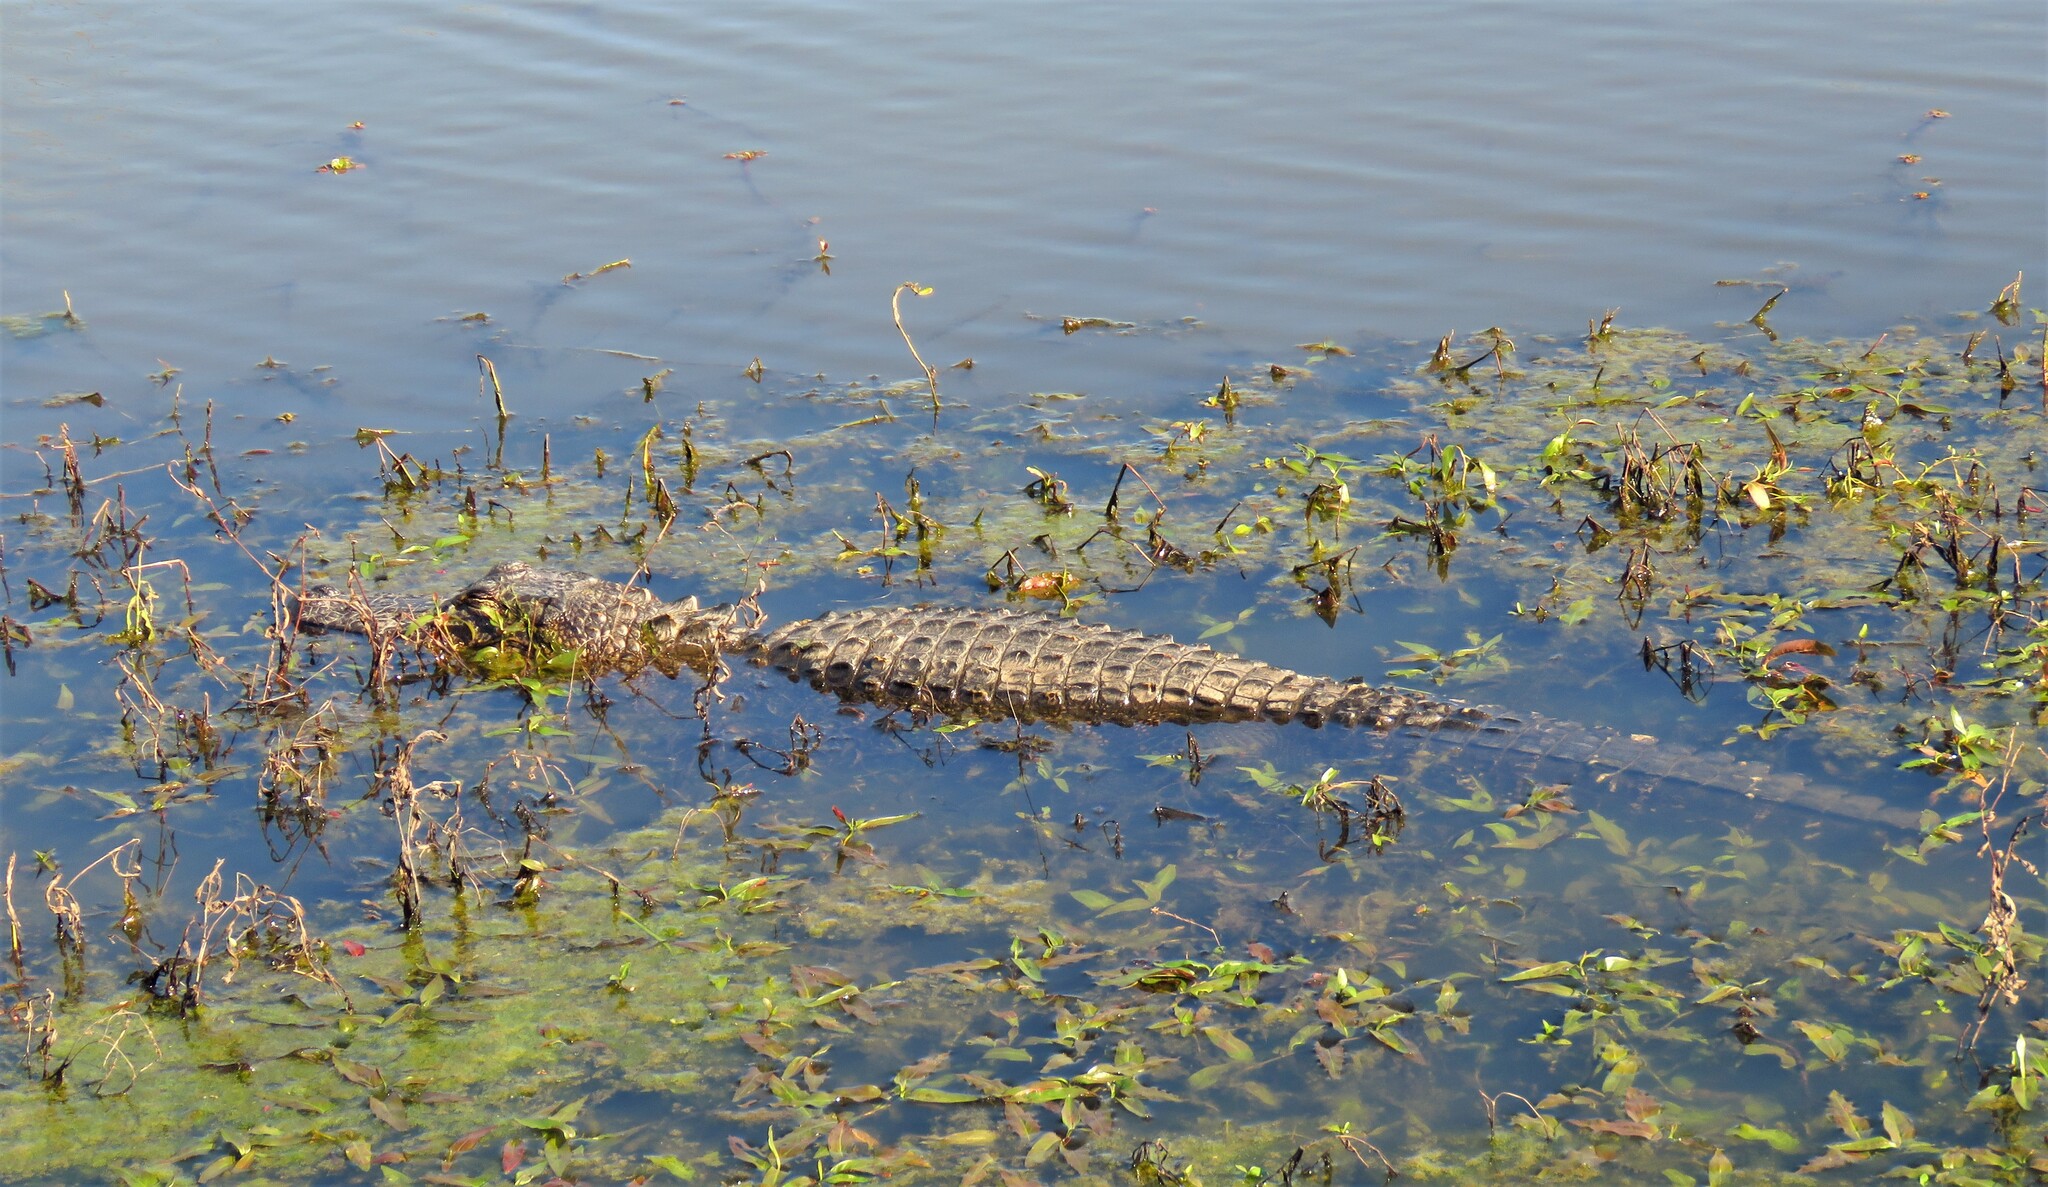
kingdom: Animalia
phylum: Chordata
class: Crocodylia
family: Alligatoridae
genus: Alligator
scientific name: Alligator mississippiensis
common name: American alligator
